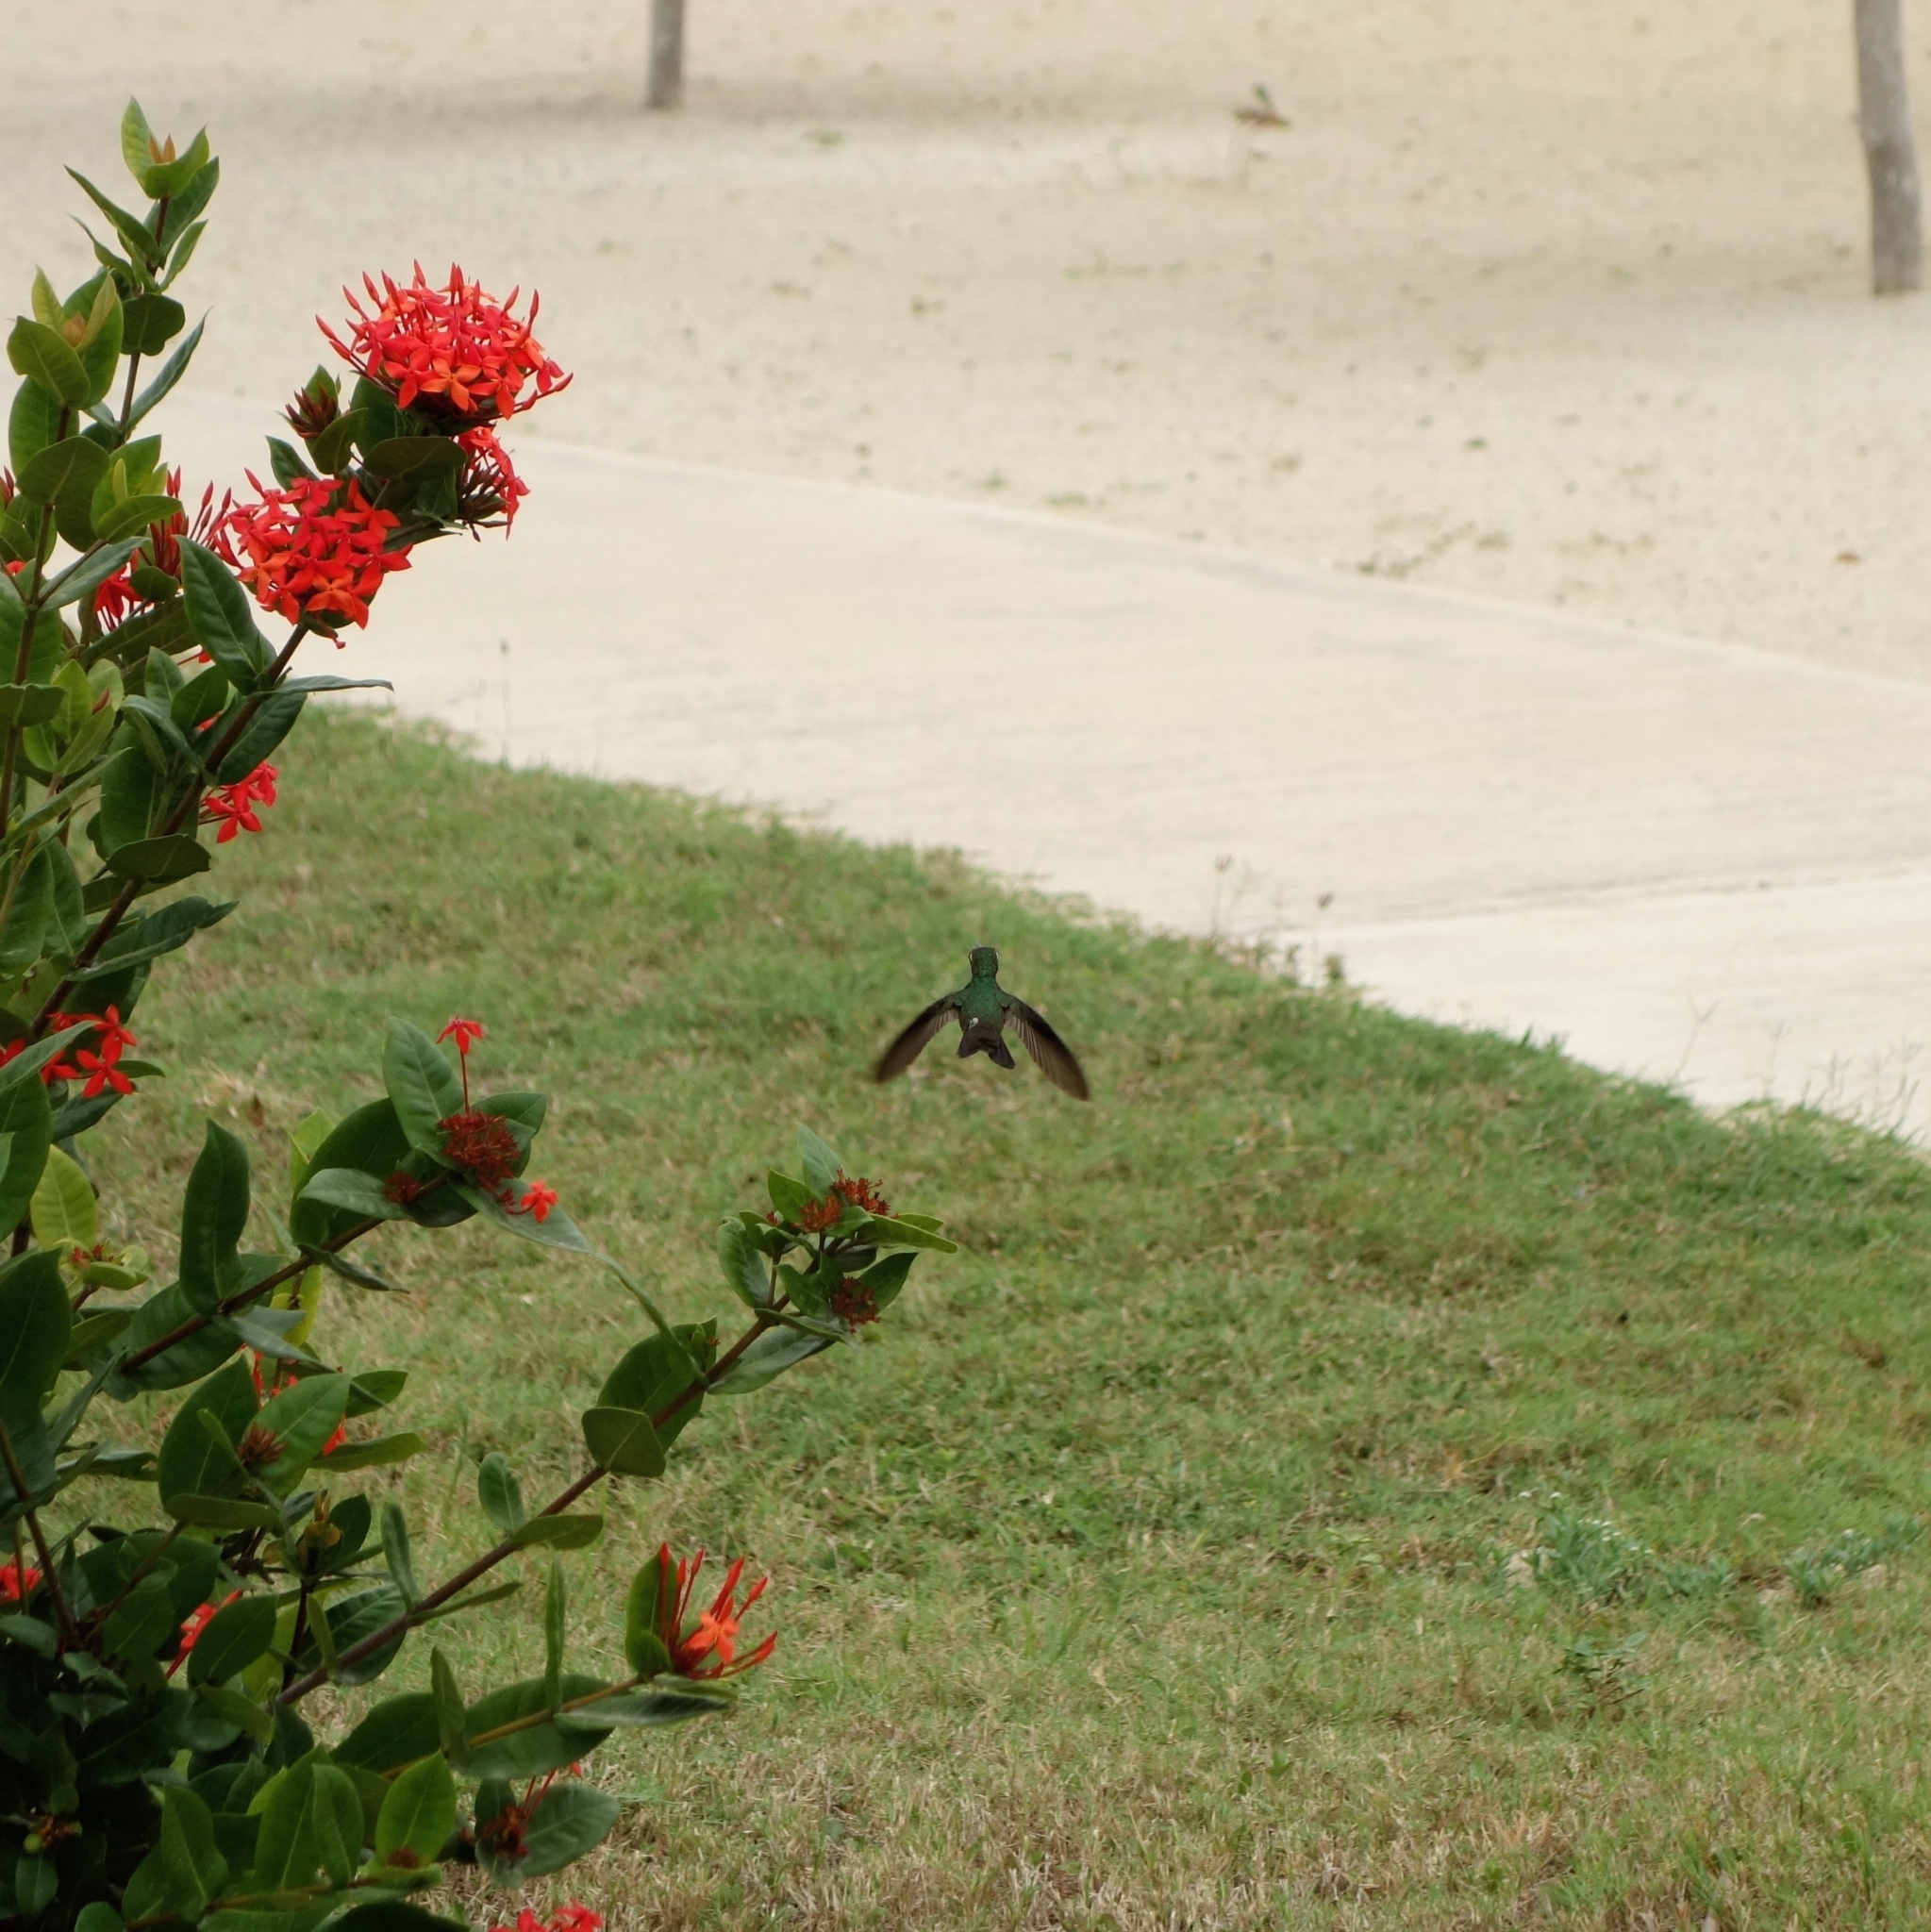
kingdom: Animalia
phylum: Chordata
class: Aves
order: Apodiformes
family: Trochilidae
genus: Riccordia
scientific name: Riccordia ricordii
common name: Cuban emerald
